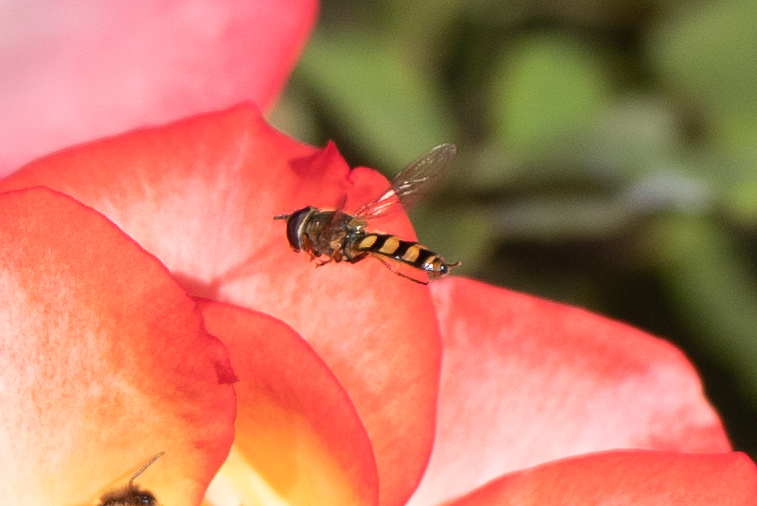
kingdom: Animalia
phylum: Arthropoda
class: Insecta
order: Diptera
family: Syrphidae
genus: Eupeodes
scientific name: Eupeodes fumipennis
